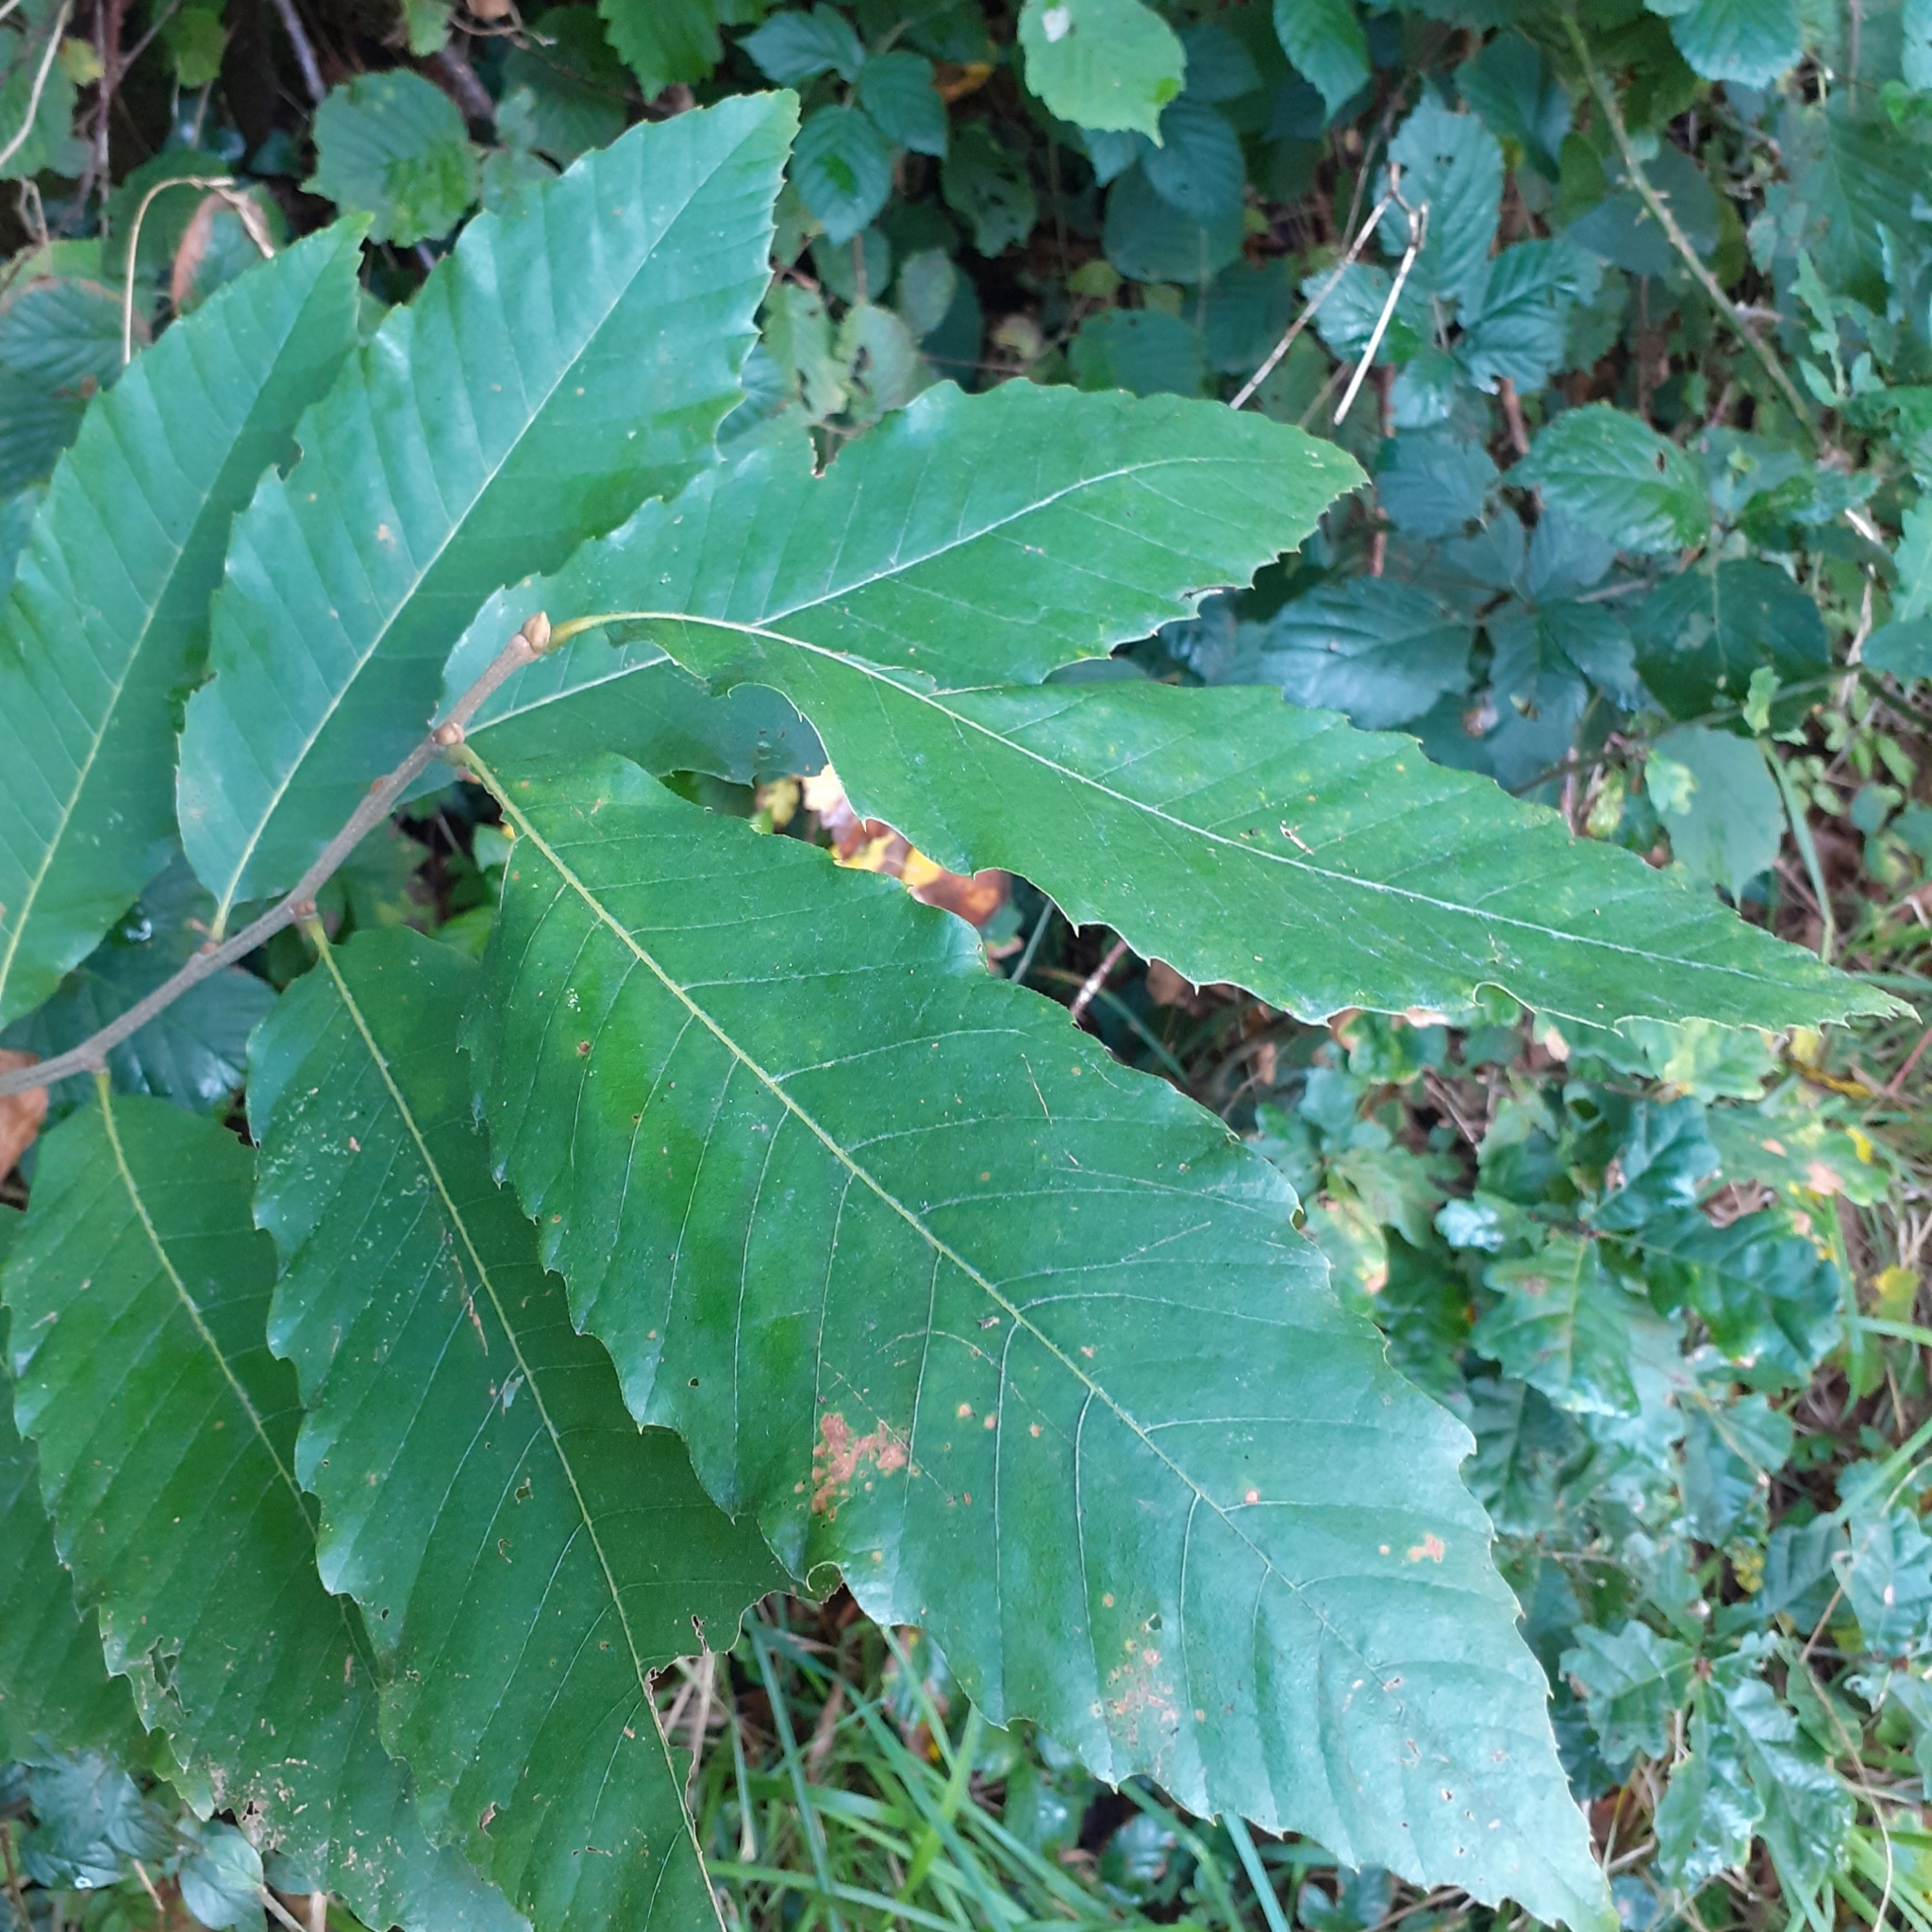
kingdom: Plantae
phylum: Tracheophyta
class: Magnoliopsida
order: Fagales
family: Fagaceae
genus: Castanea
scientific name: Castanea sativa
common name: Sweet chestnut
